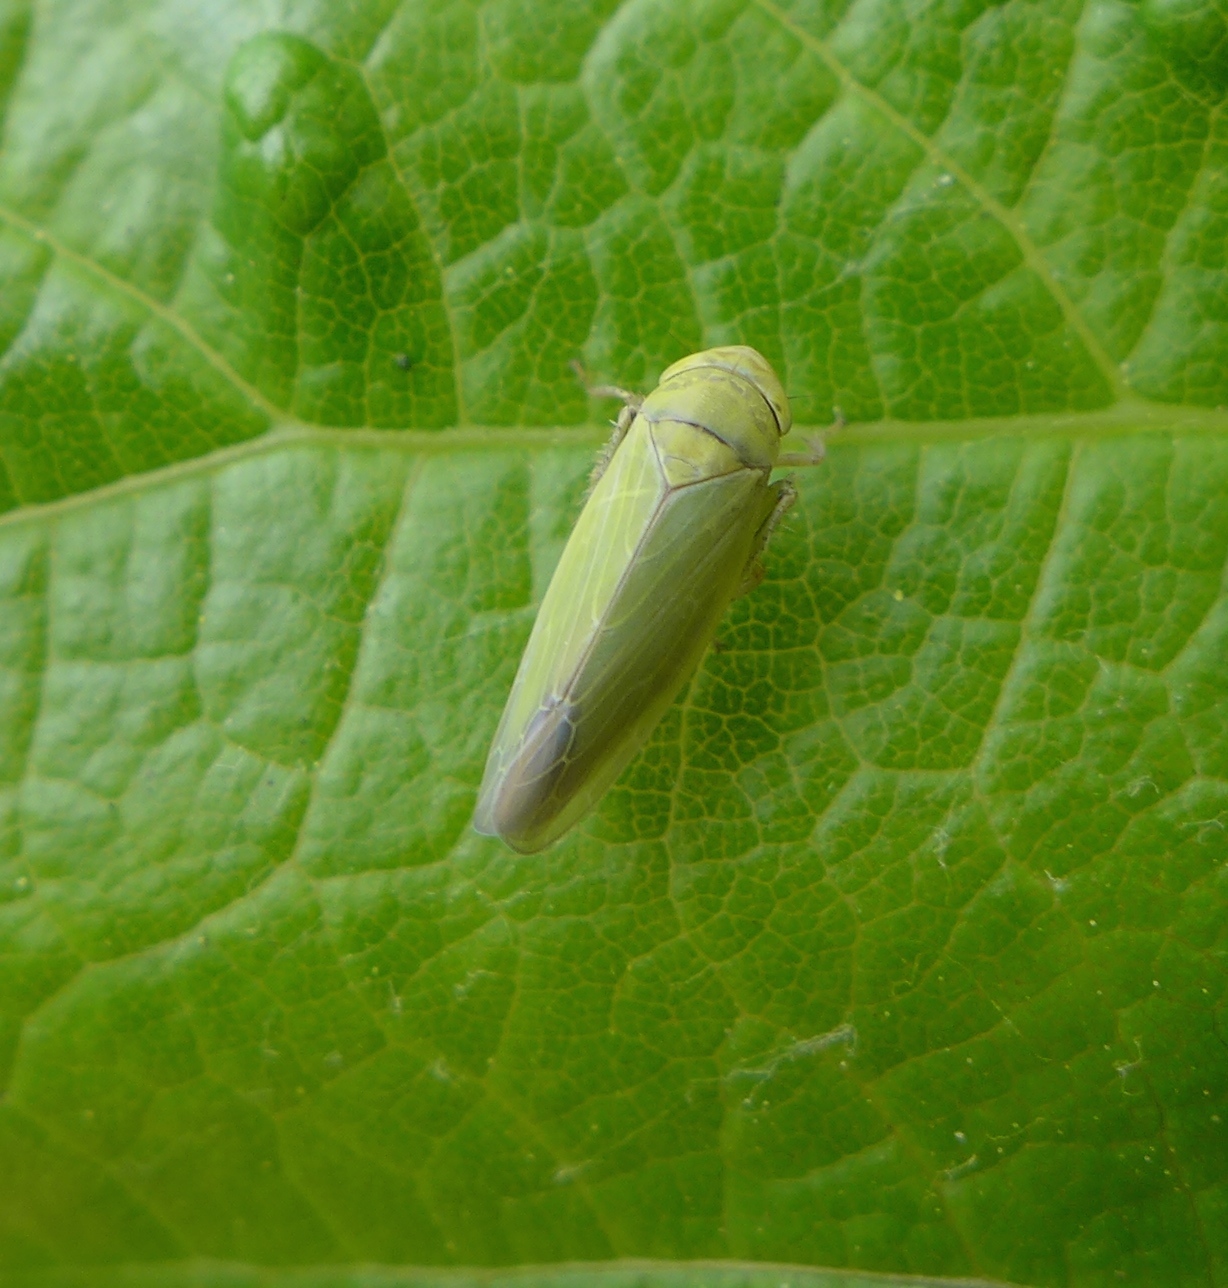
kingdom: Animalia
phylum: Arthropoda
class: Insecta
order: Hemiptera
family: Cicadellidae
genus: Thamnotettix
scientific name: Thamnotettix zelleri
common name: Leafhopper
